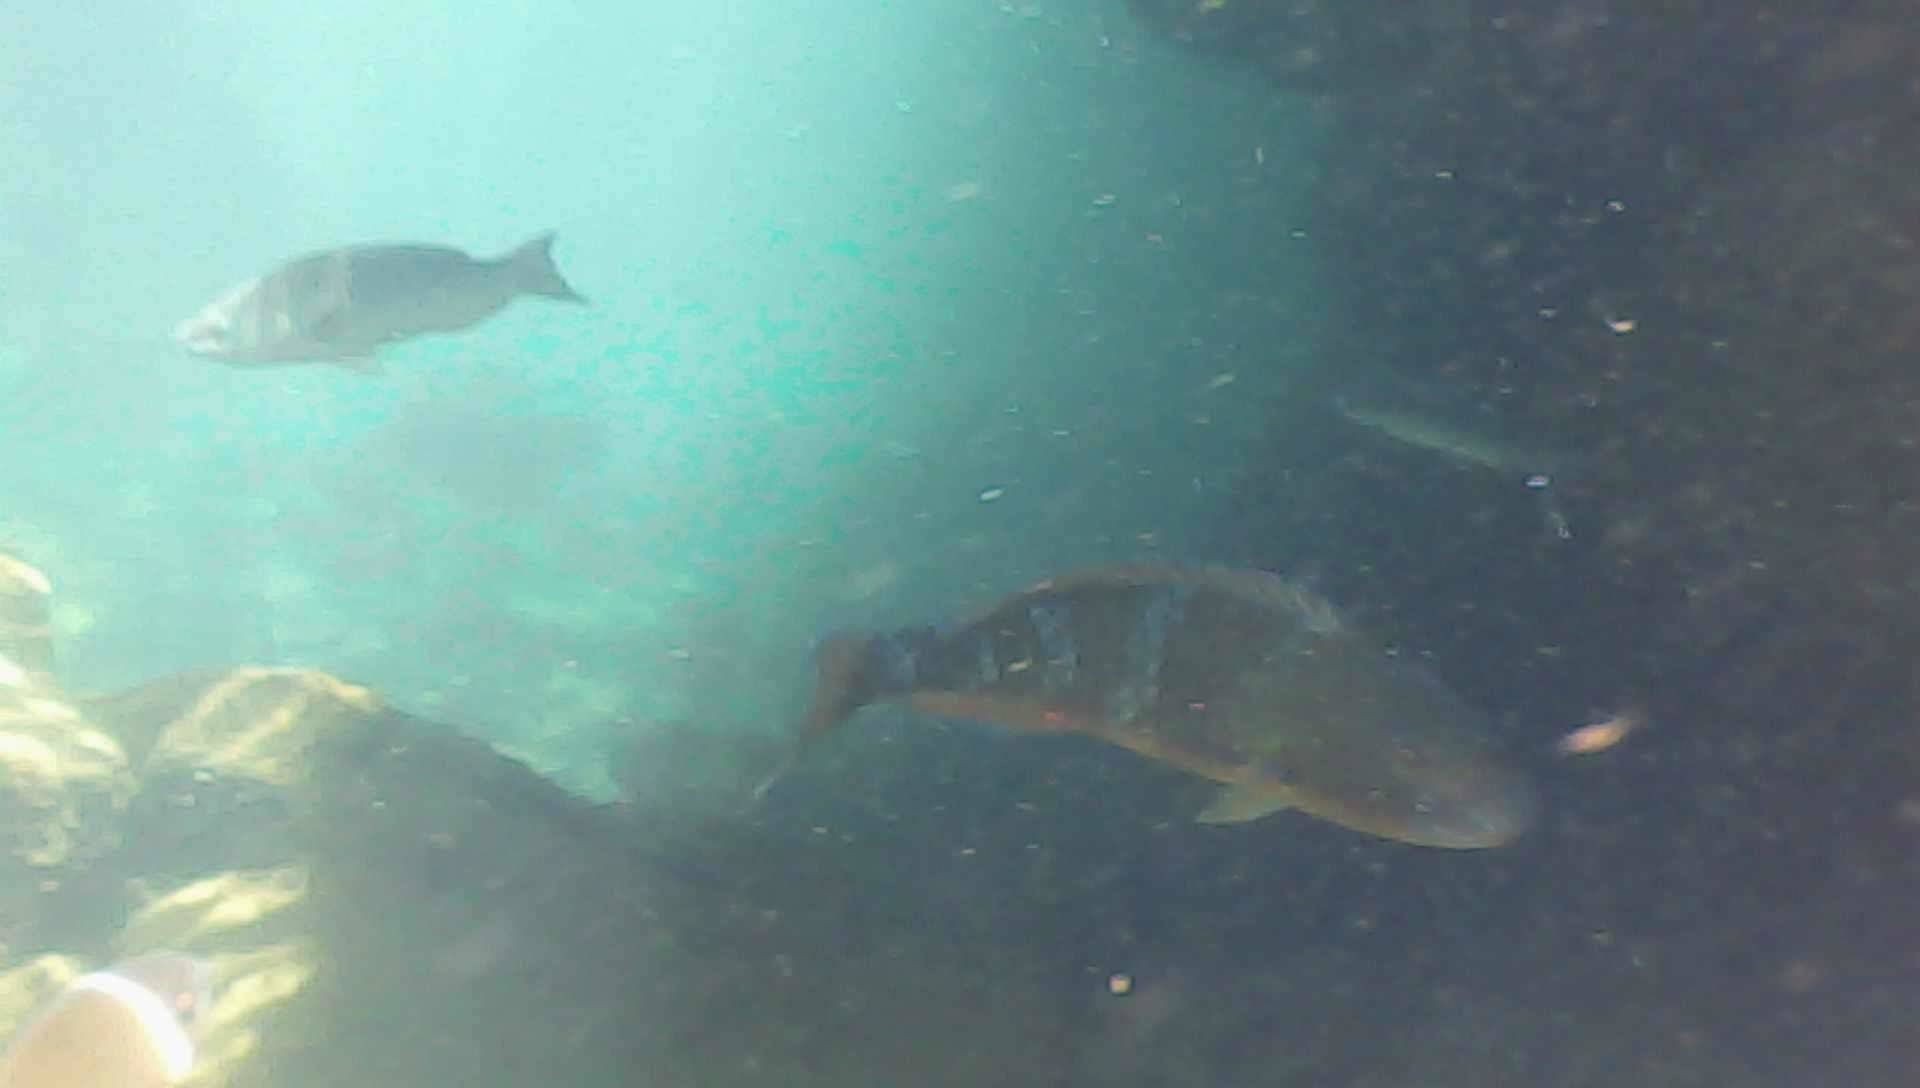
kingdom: Animalia
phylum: Chordata
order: Perciformes
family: Scaridae
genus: Scarus
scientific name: Scarus ghobban
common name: Blue-barred parrotfish
